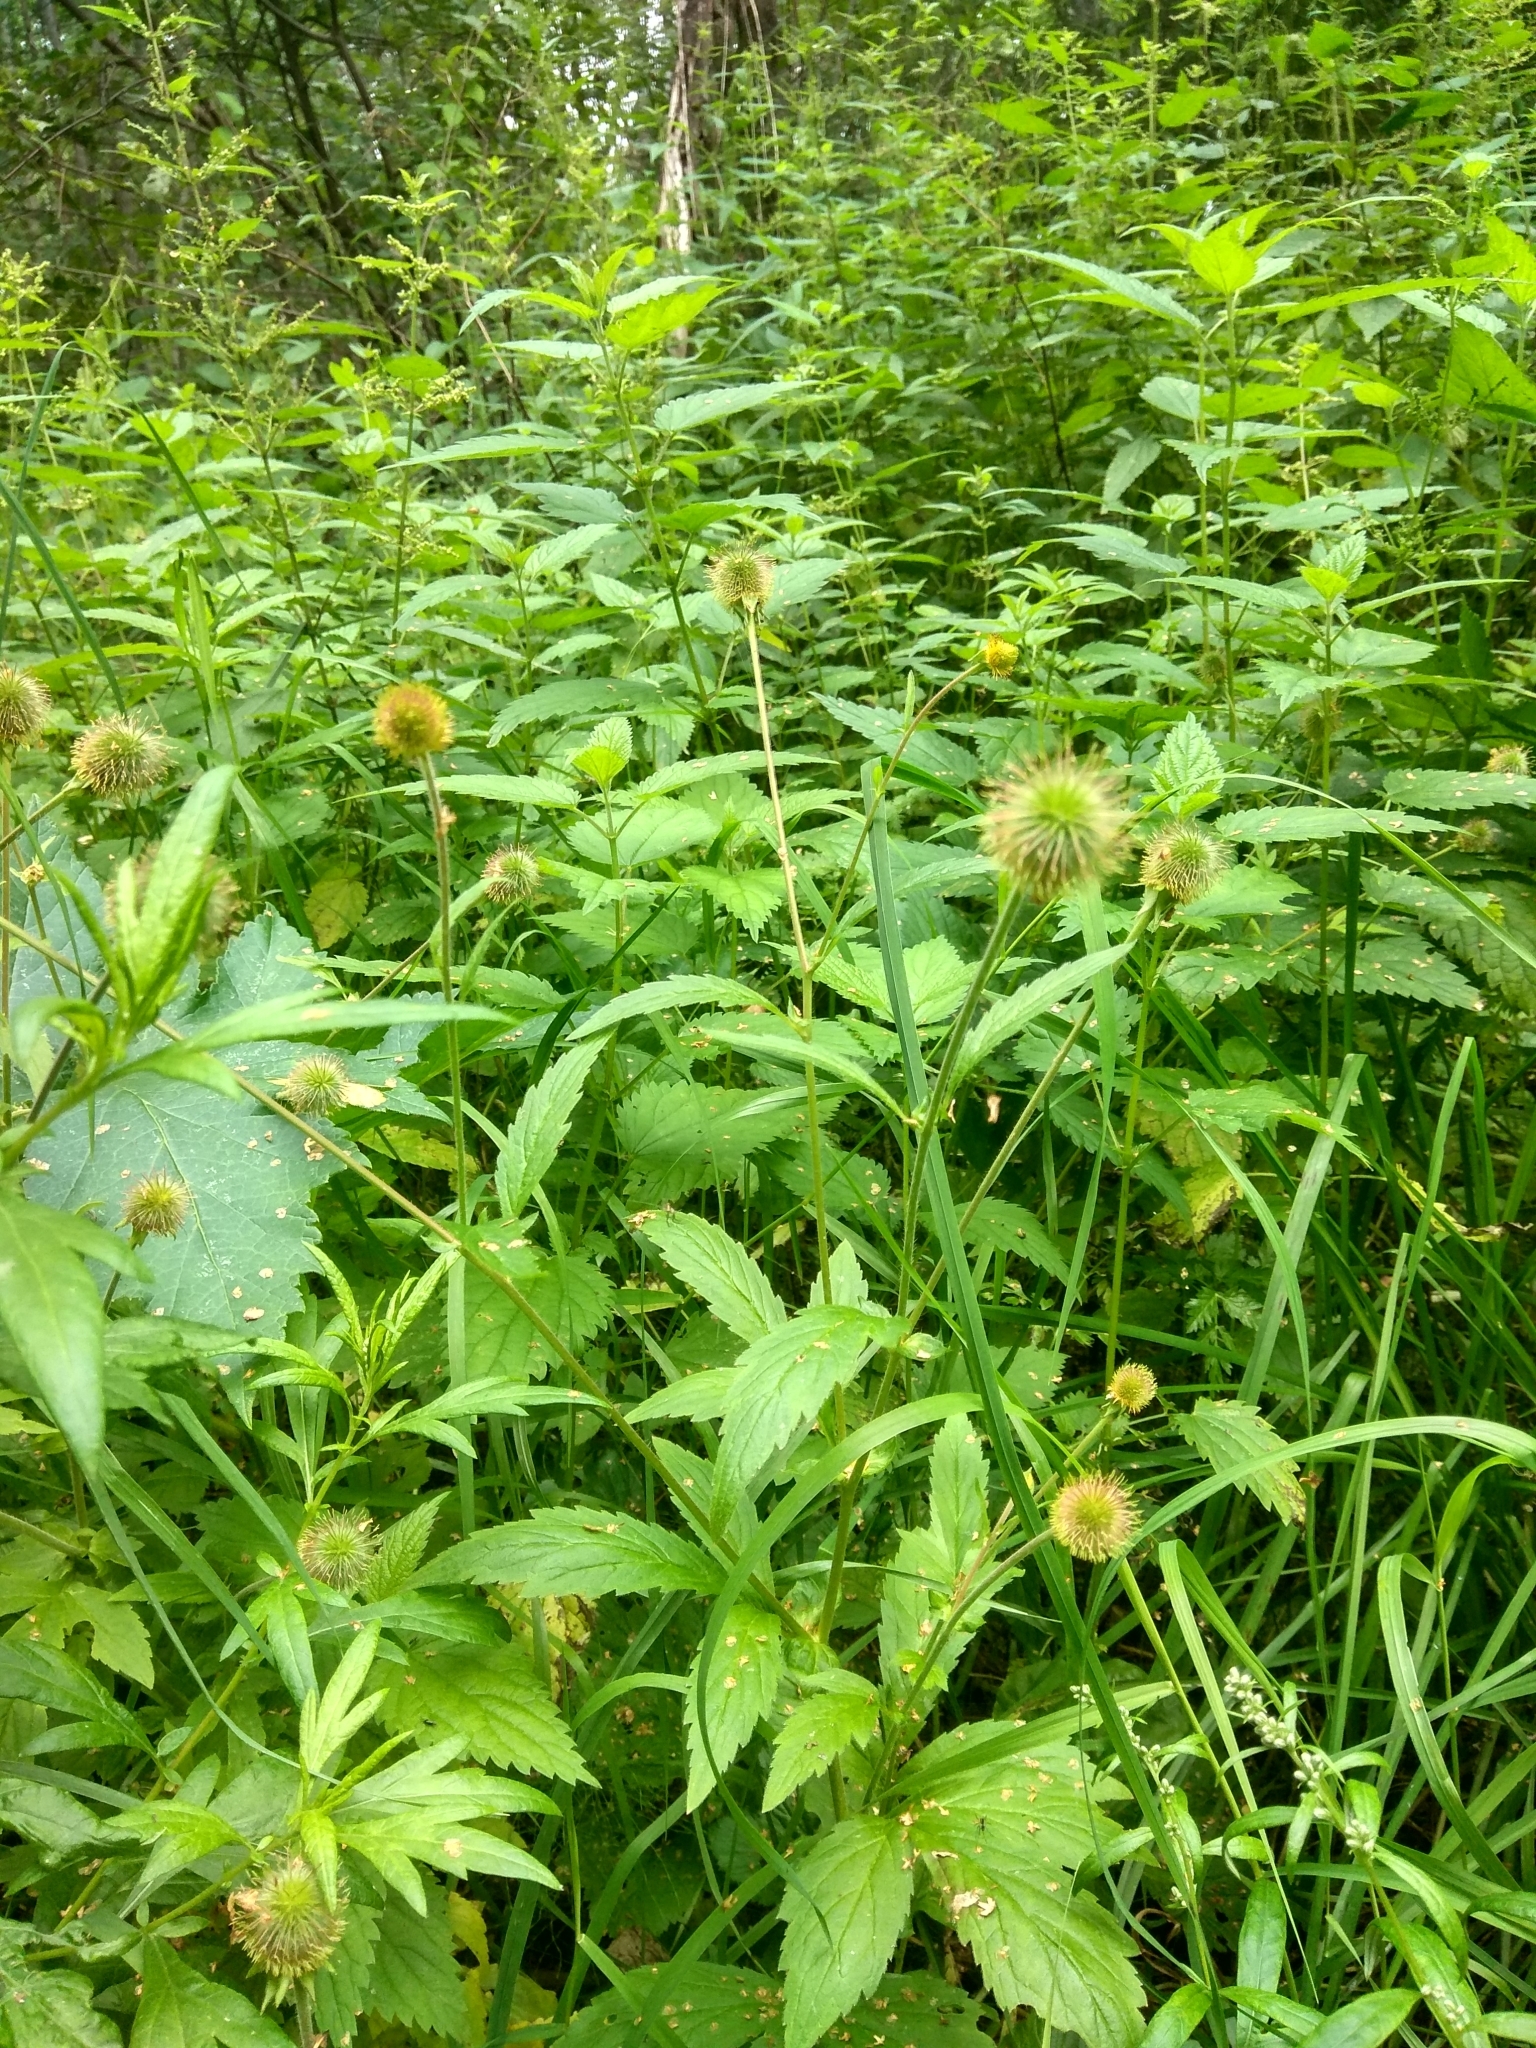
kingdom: Plantae
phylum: Tracheophyta
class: Magnoliopsida
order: Rosales
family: Rosaceae
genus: Geum
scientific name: Geum urbanum
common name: Wood avens
